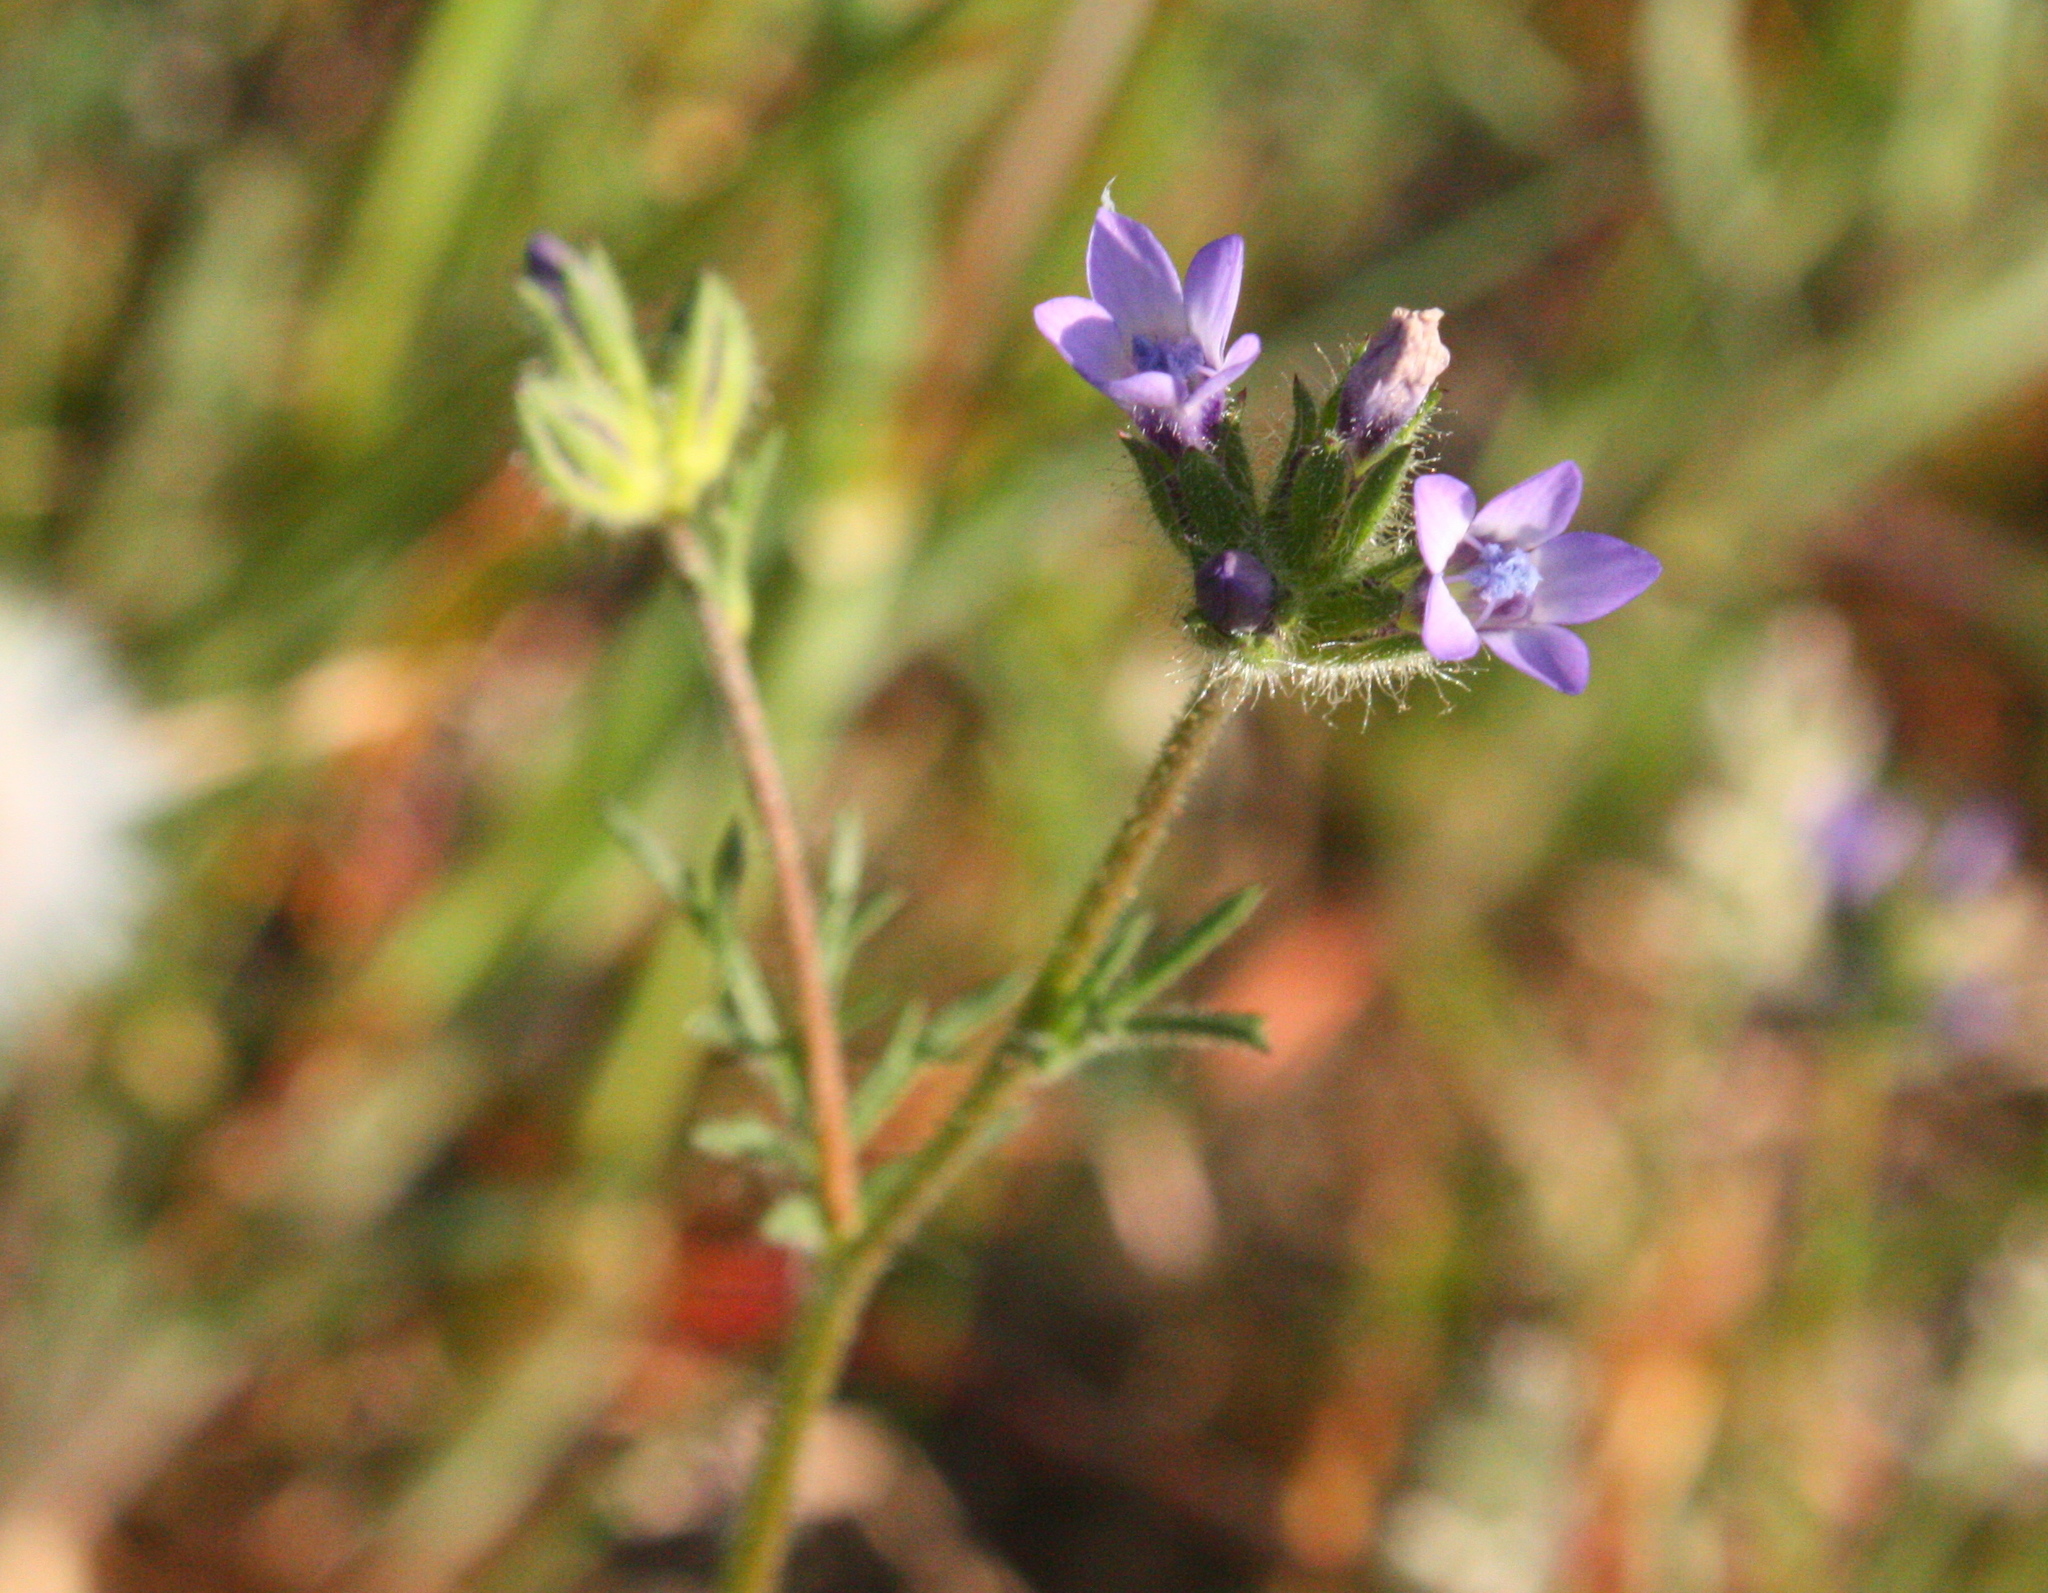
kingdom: Plantae
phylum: Tracheophyta
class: Magnoliopsida
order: Ericales
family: Polemoniaceae
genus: Gilia
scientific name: Gilia clivorum
